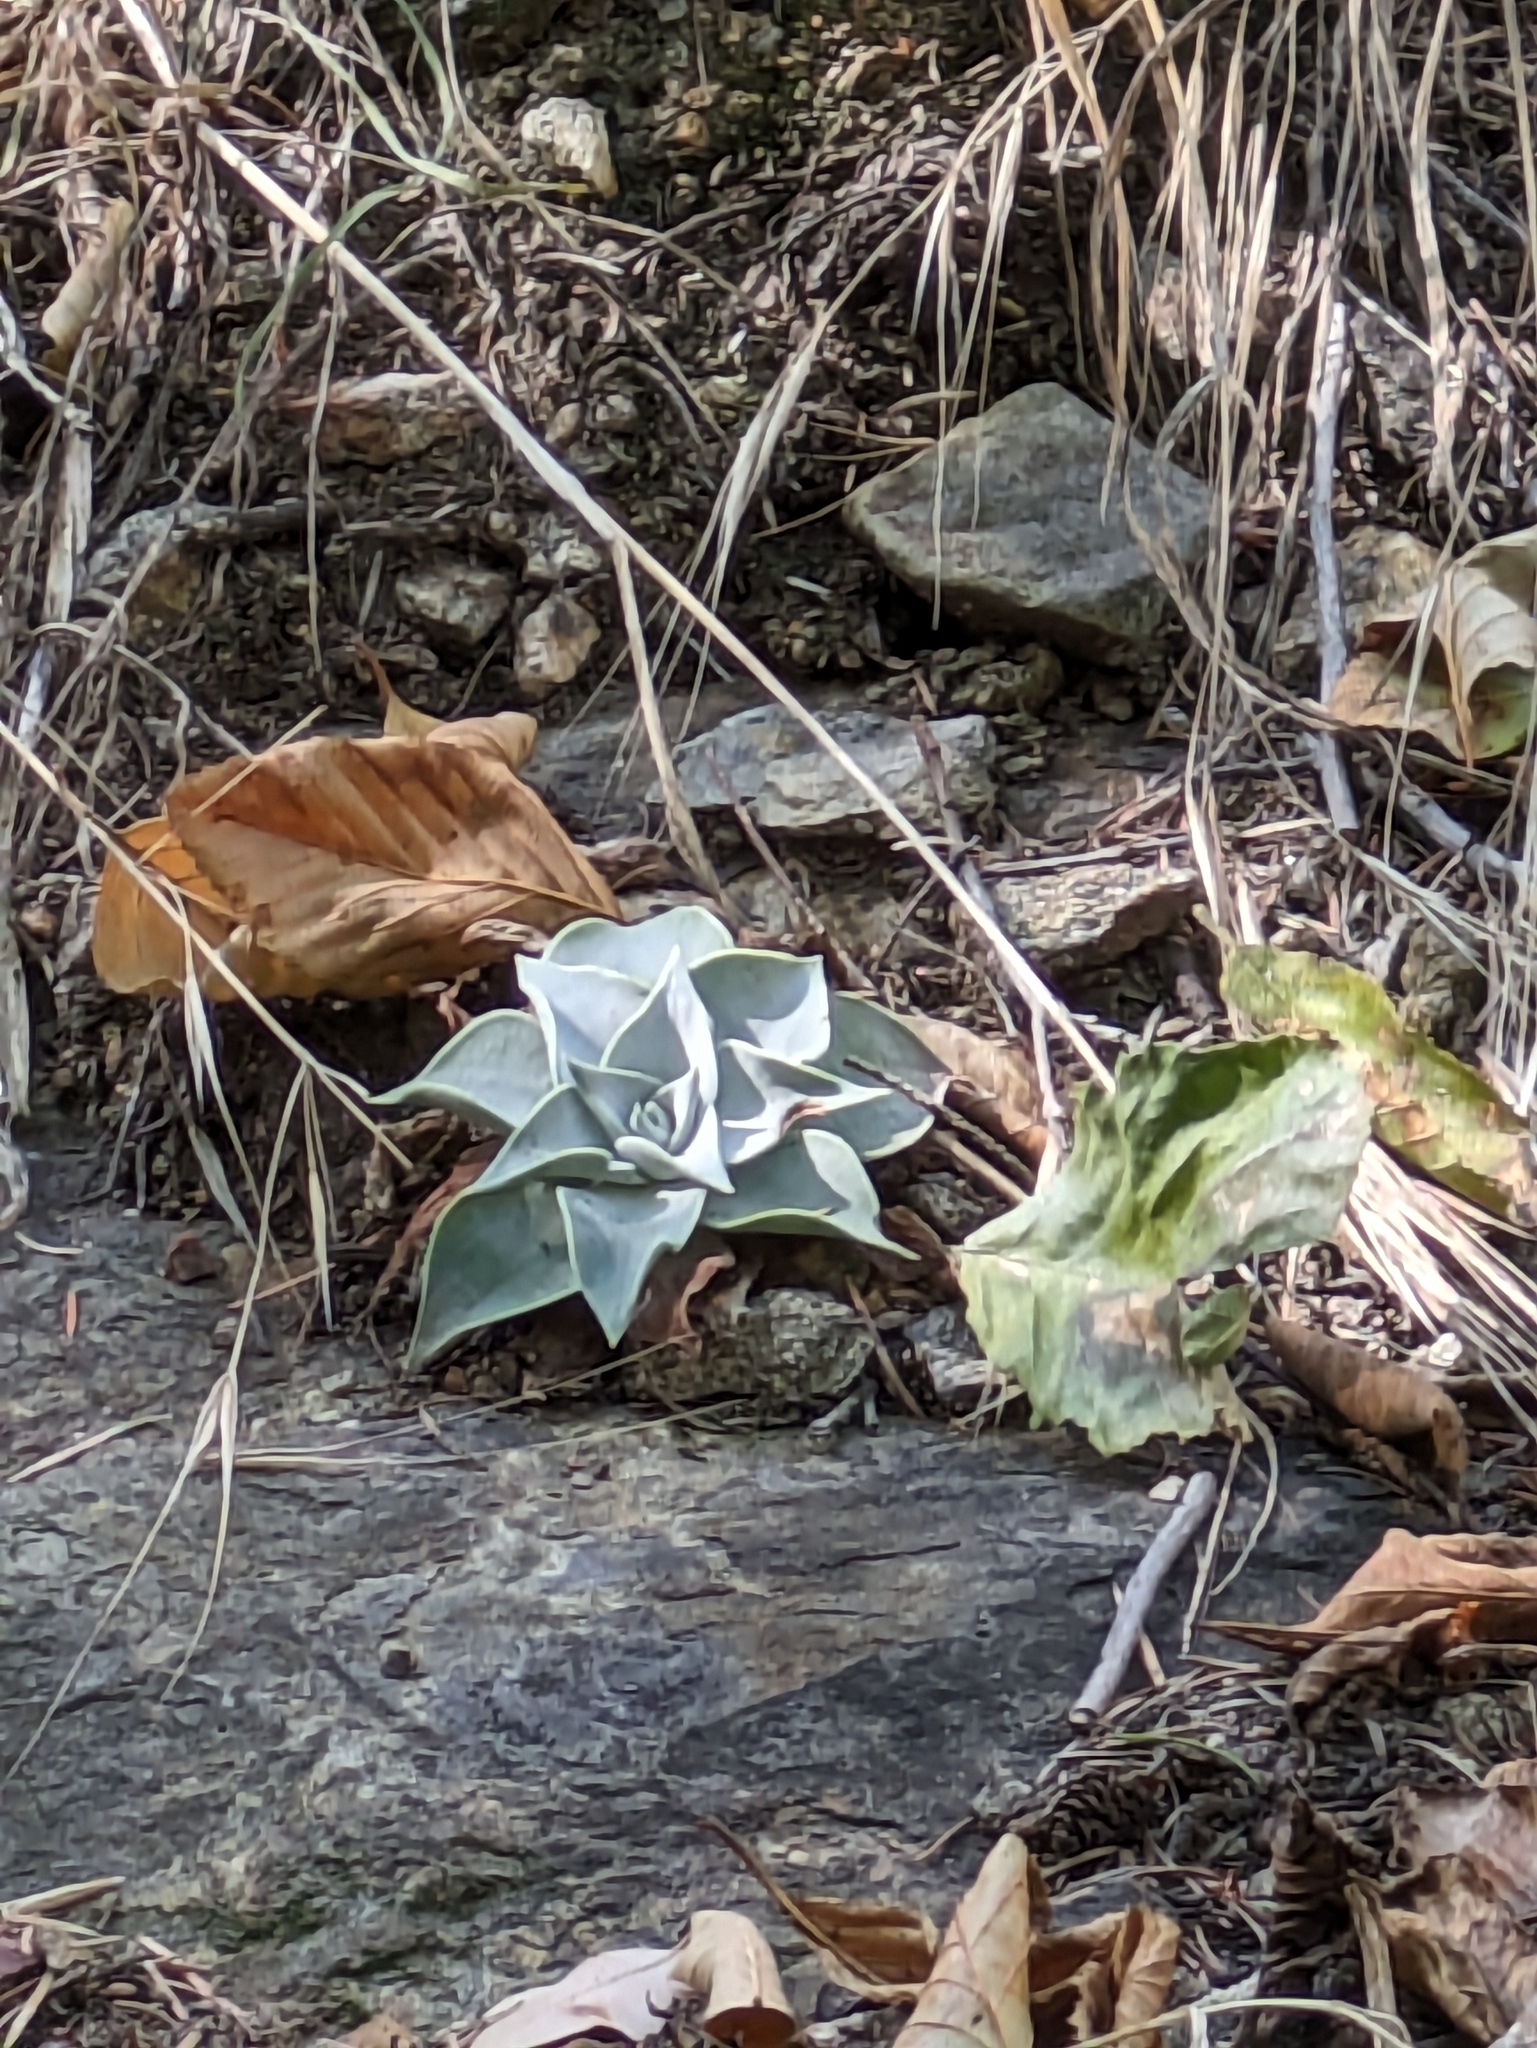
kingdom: Plantae
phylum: Tracheophyta
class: Magnoliopsida
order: Saxifragales
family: Crassulaceae
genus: Dudleya
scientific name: Dudleya cymosa
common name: Canyon dudleya
